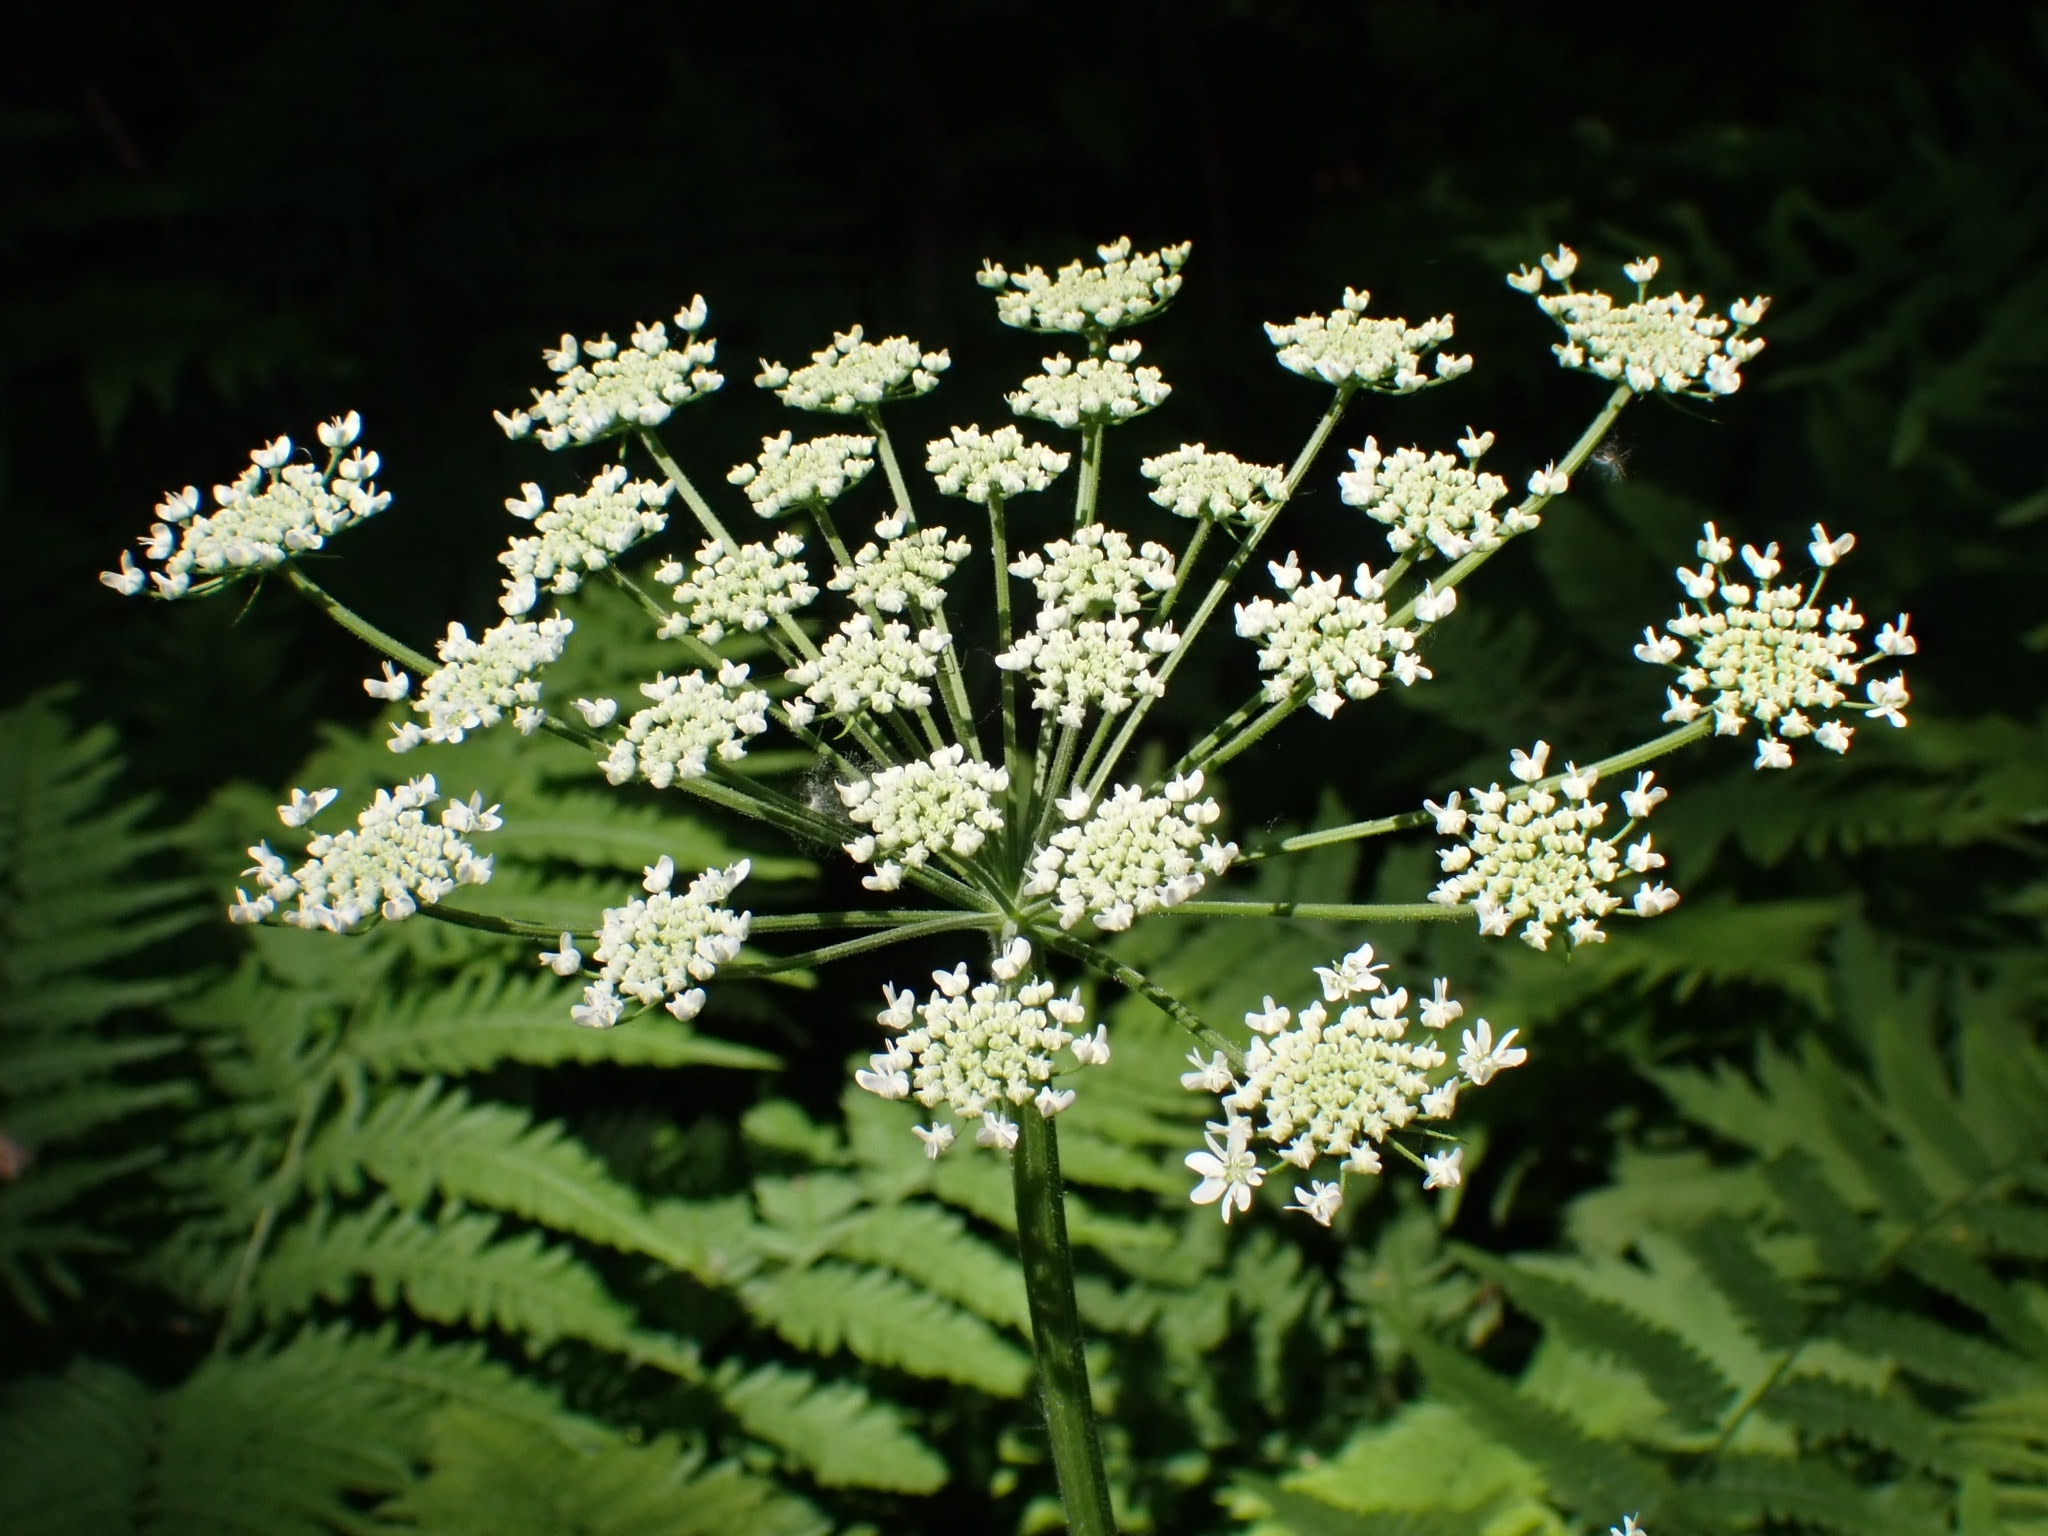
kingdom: Plantae
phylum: Tracheophyta
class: Magnoliopsida
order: Apiales
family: Apiaceae
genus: Heracleum
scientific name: Heracleum dissectum
